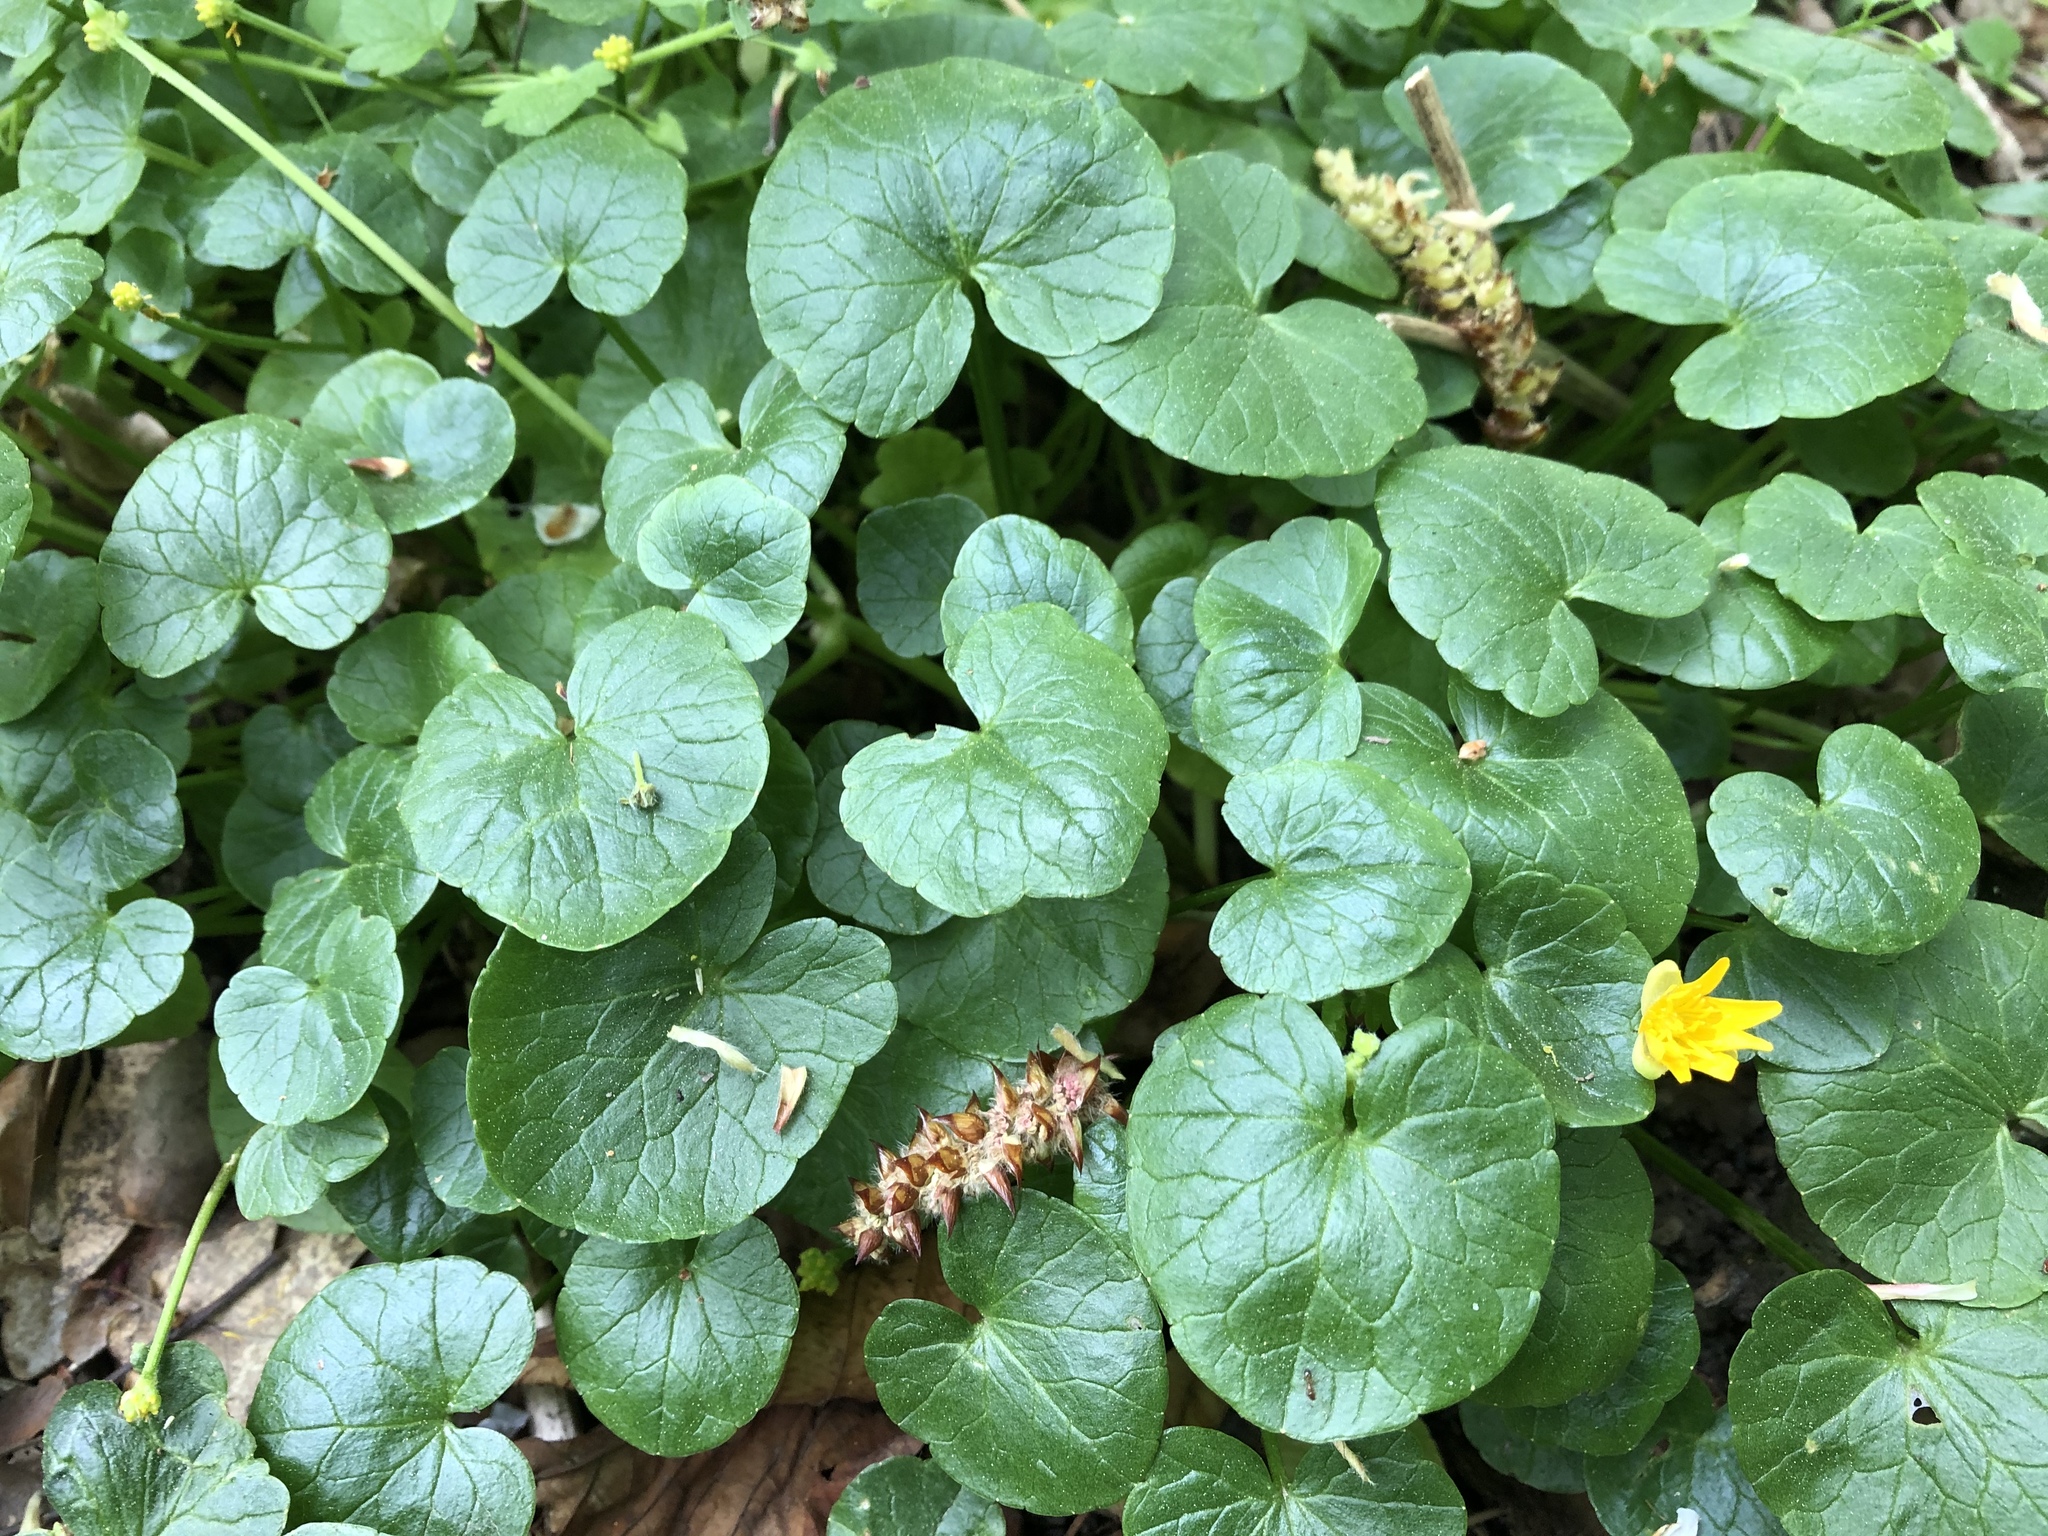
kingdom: Plantae
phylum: Tracheophyta
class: Magnoliopsida
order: Ranunculales
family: Ranunculaceae
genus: Ficaria
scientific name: Ficaria verna
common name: Lesser celandine
